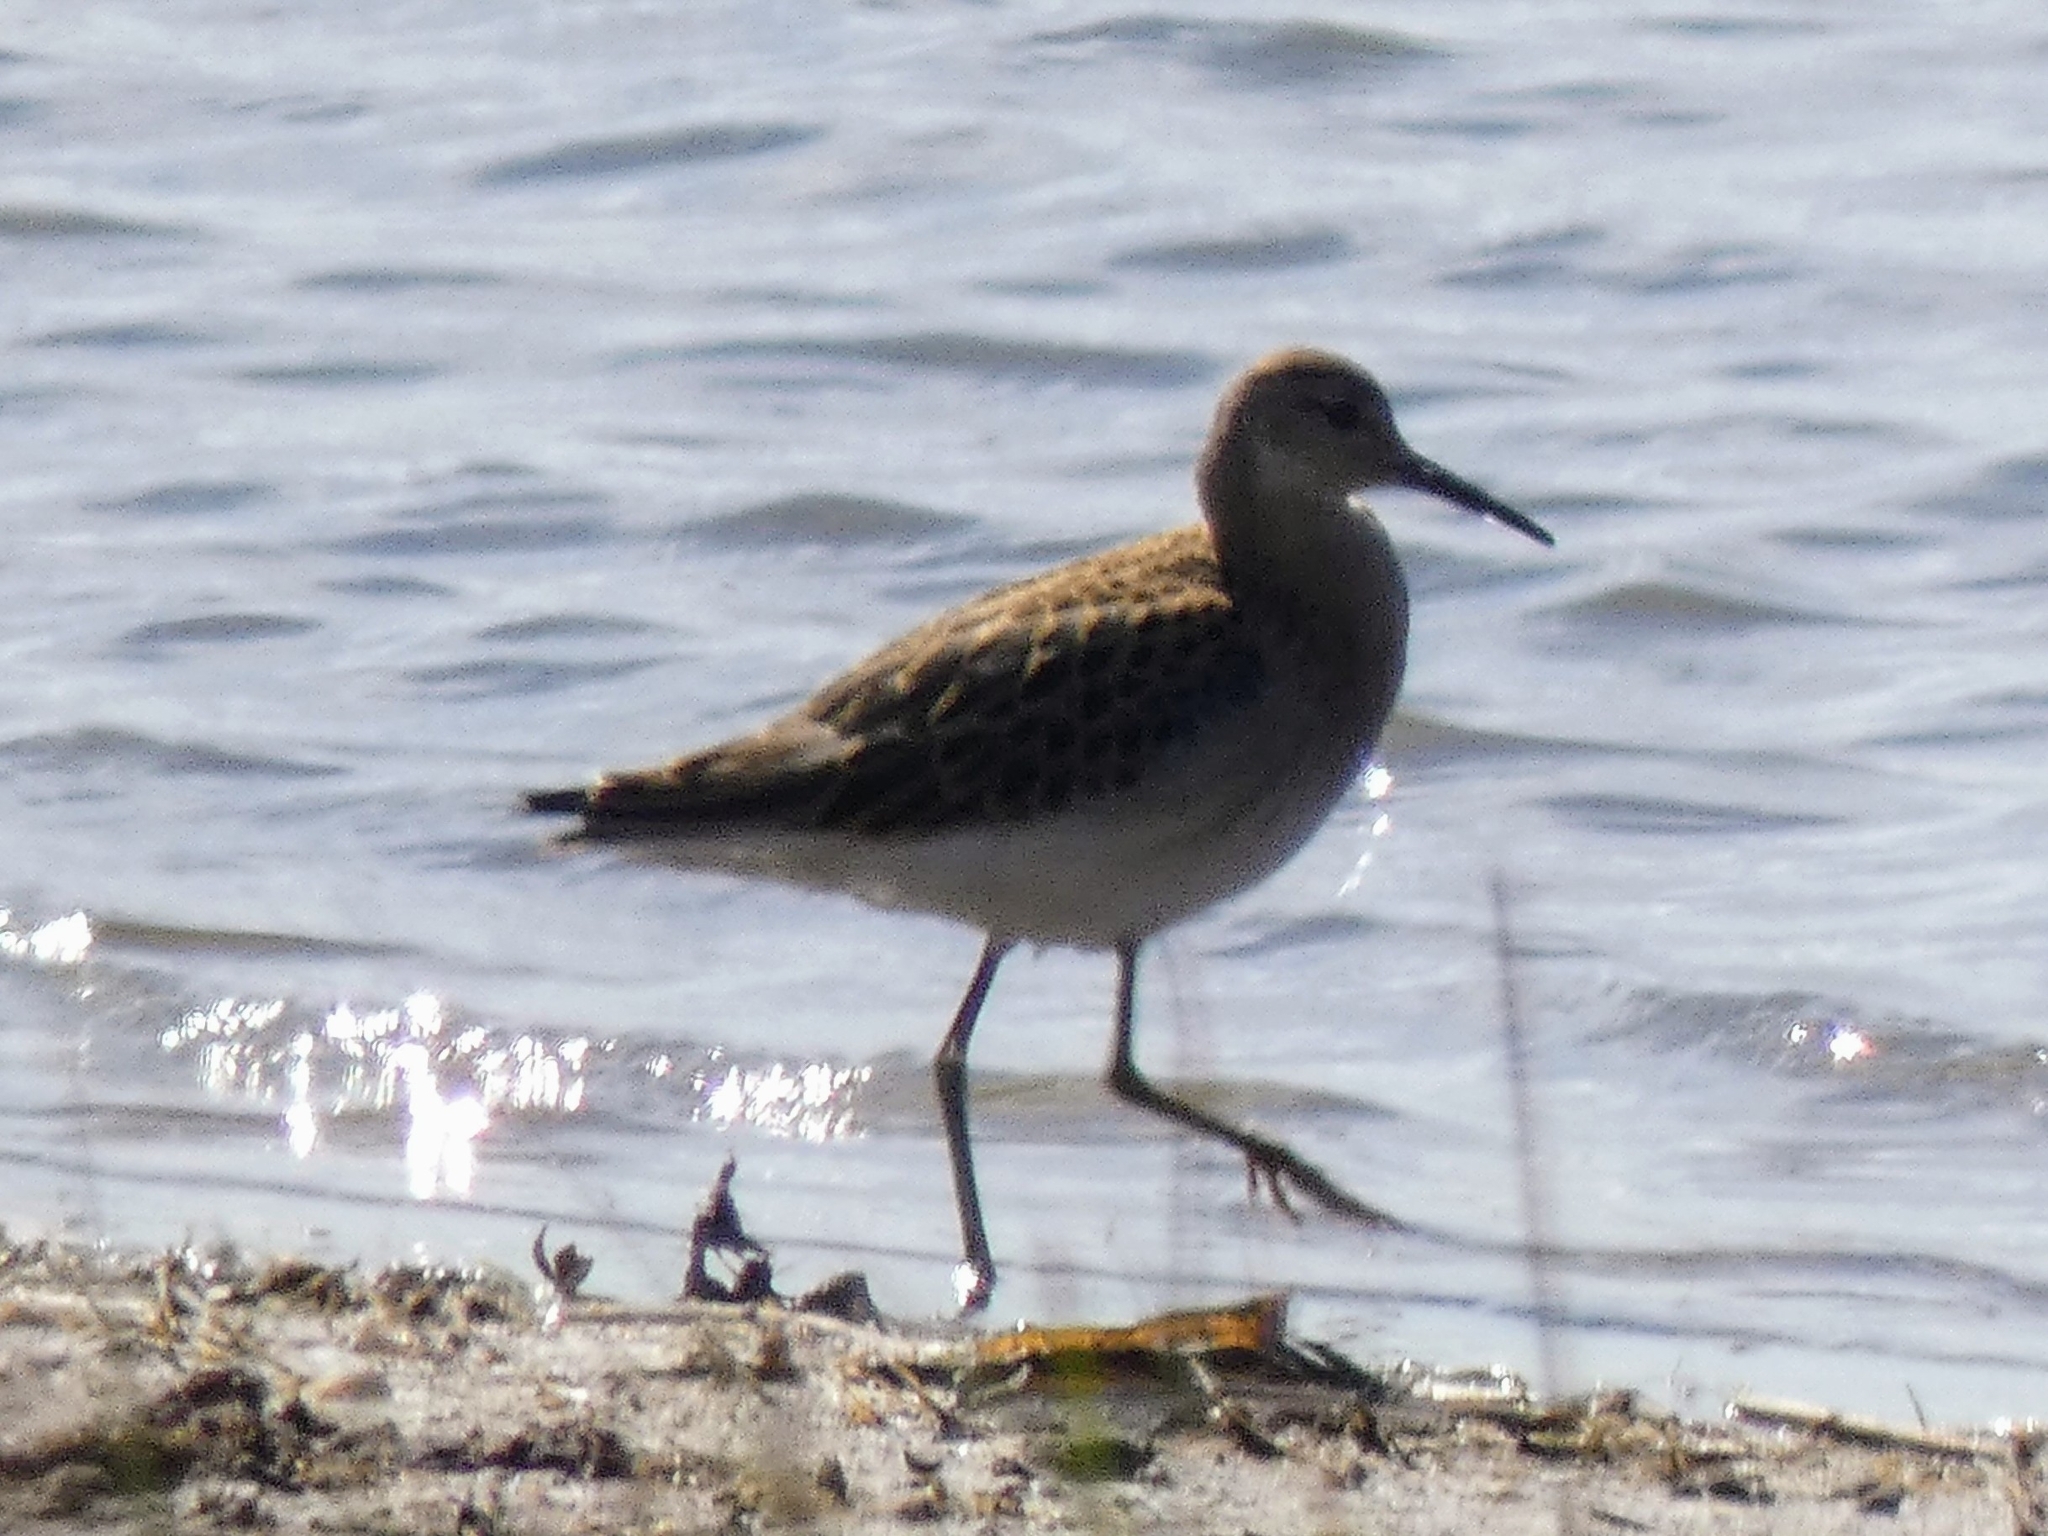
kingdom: Animalia
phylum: Chordata
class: Aves
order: Charadriiformes
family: Scolopacidae
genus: Calidris
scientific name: Calidris pugnax
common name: Ruff
